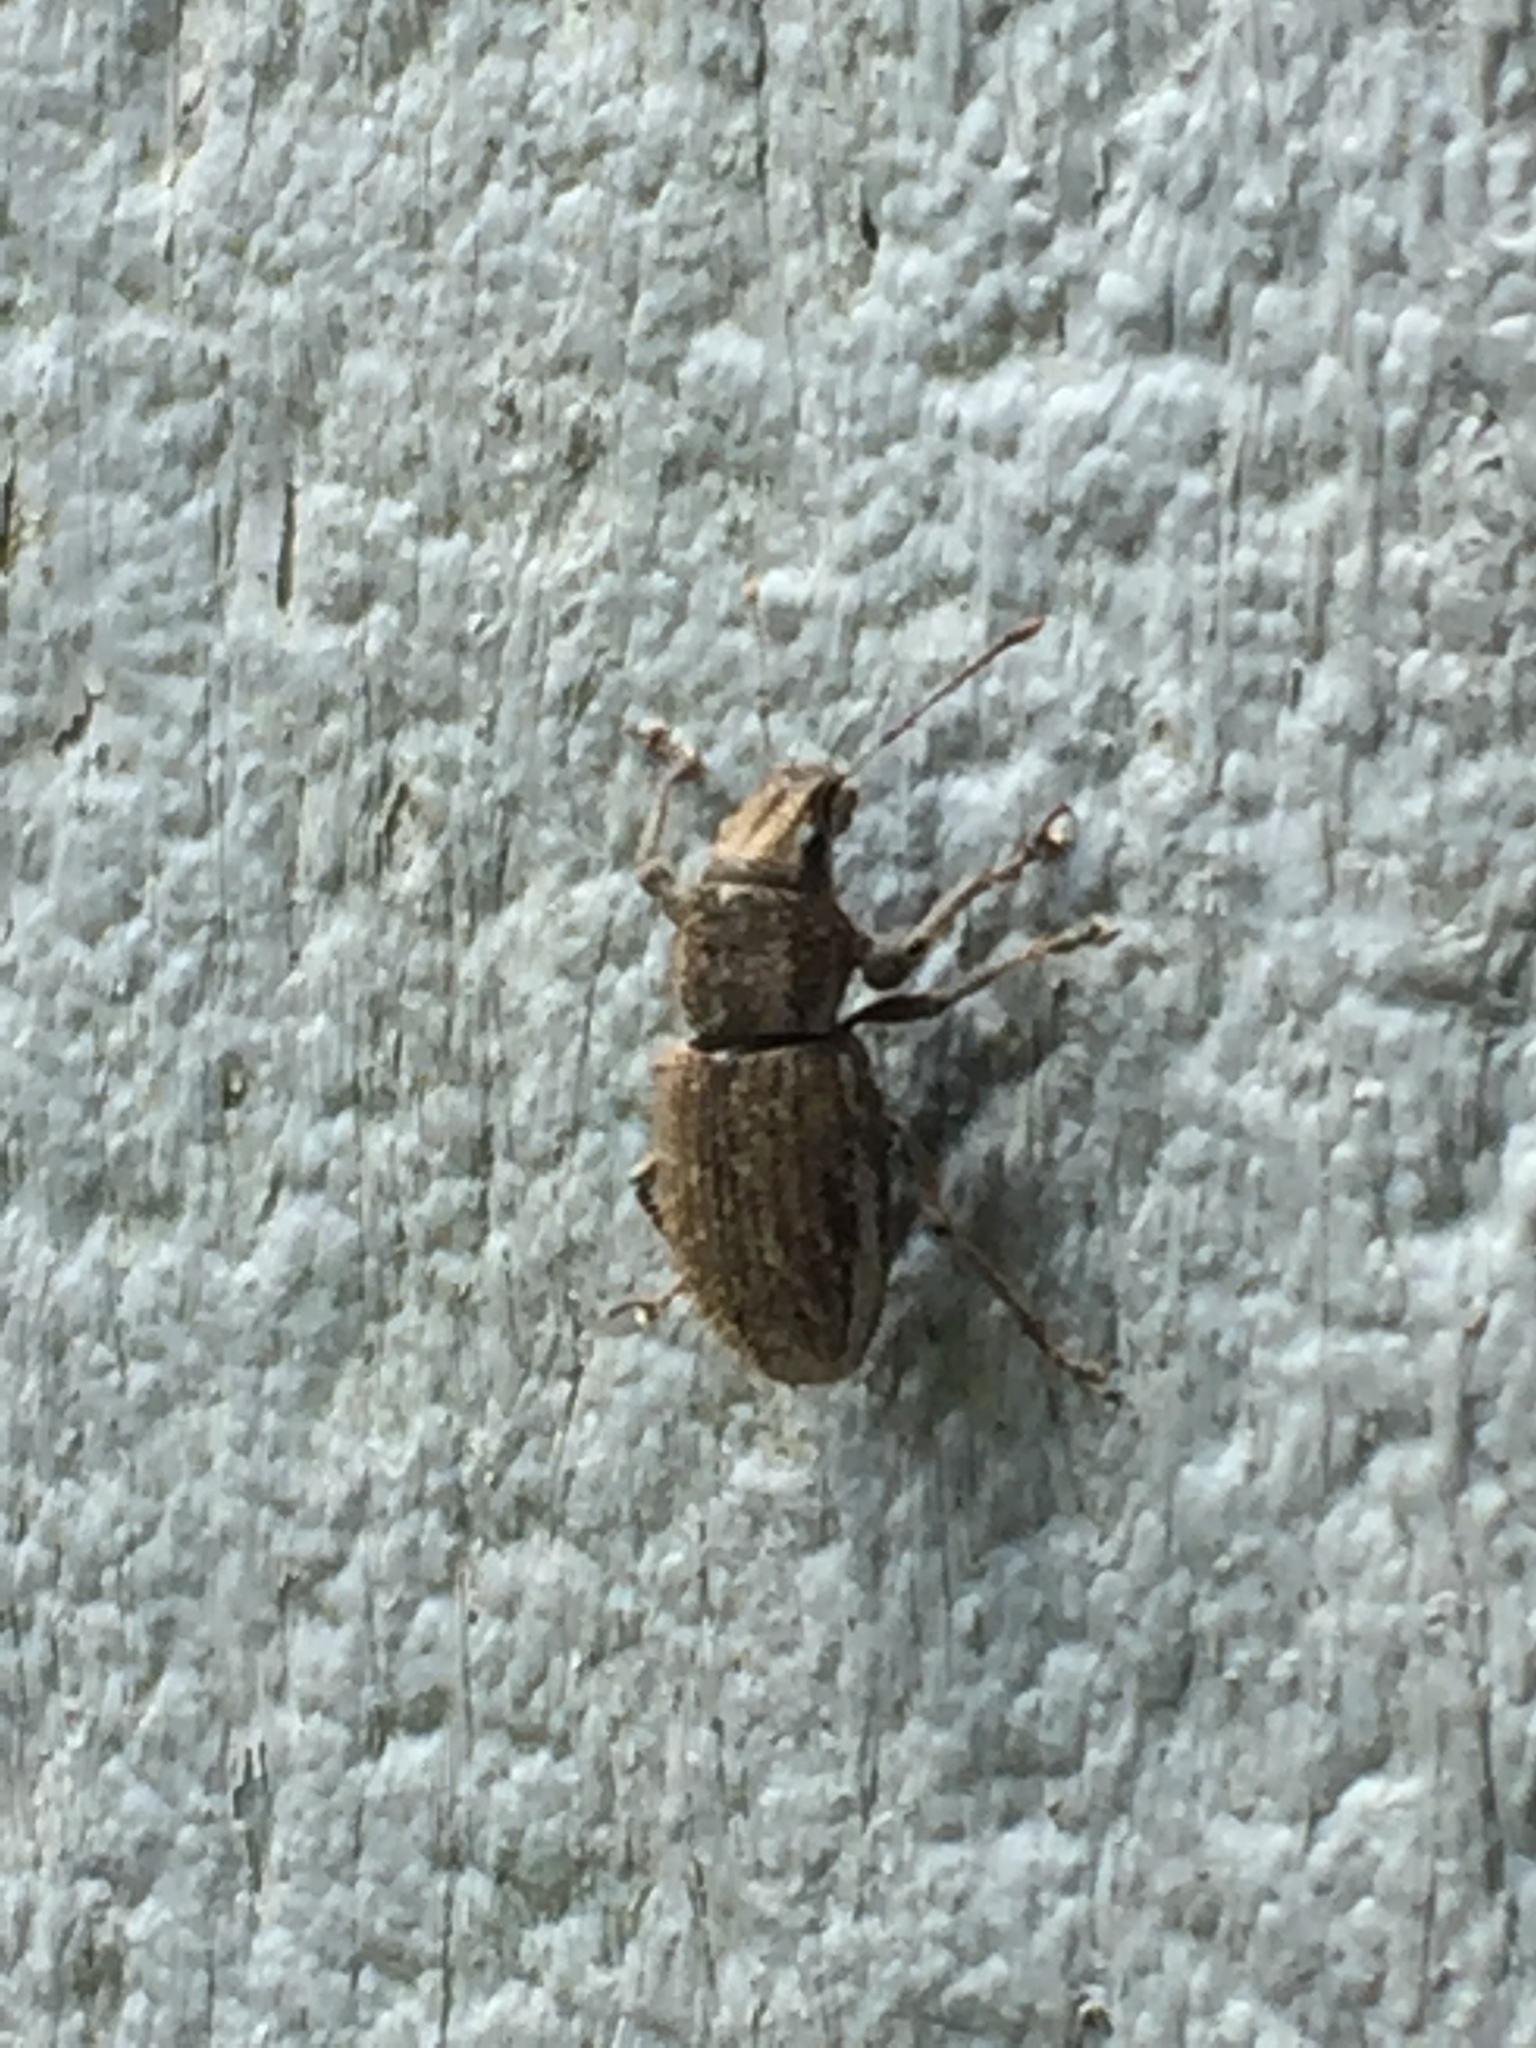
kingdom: Animalia
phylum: Arthropoda
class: Insecta
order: Coleoptera
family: Curculionidae
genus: Naupactus
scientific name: Naupactus leucoloma
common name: Whitefringed beetle
